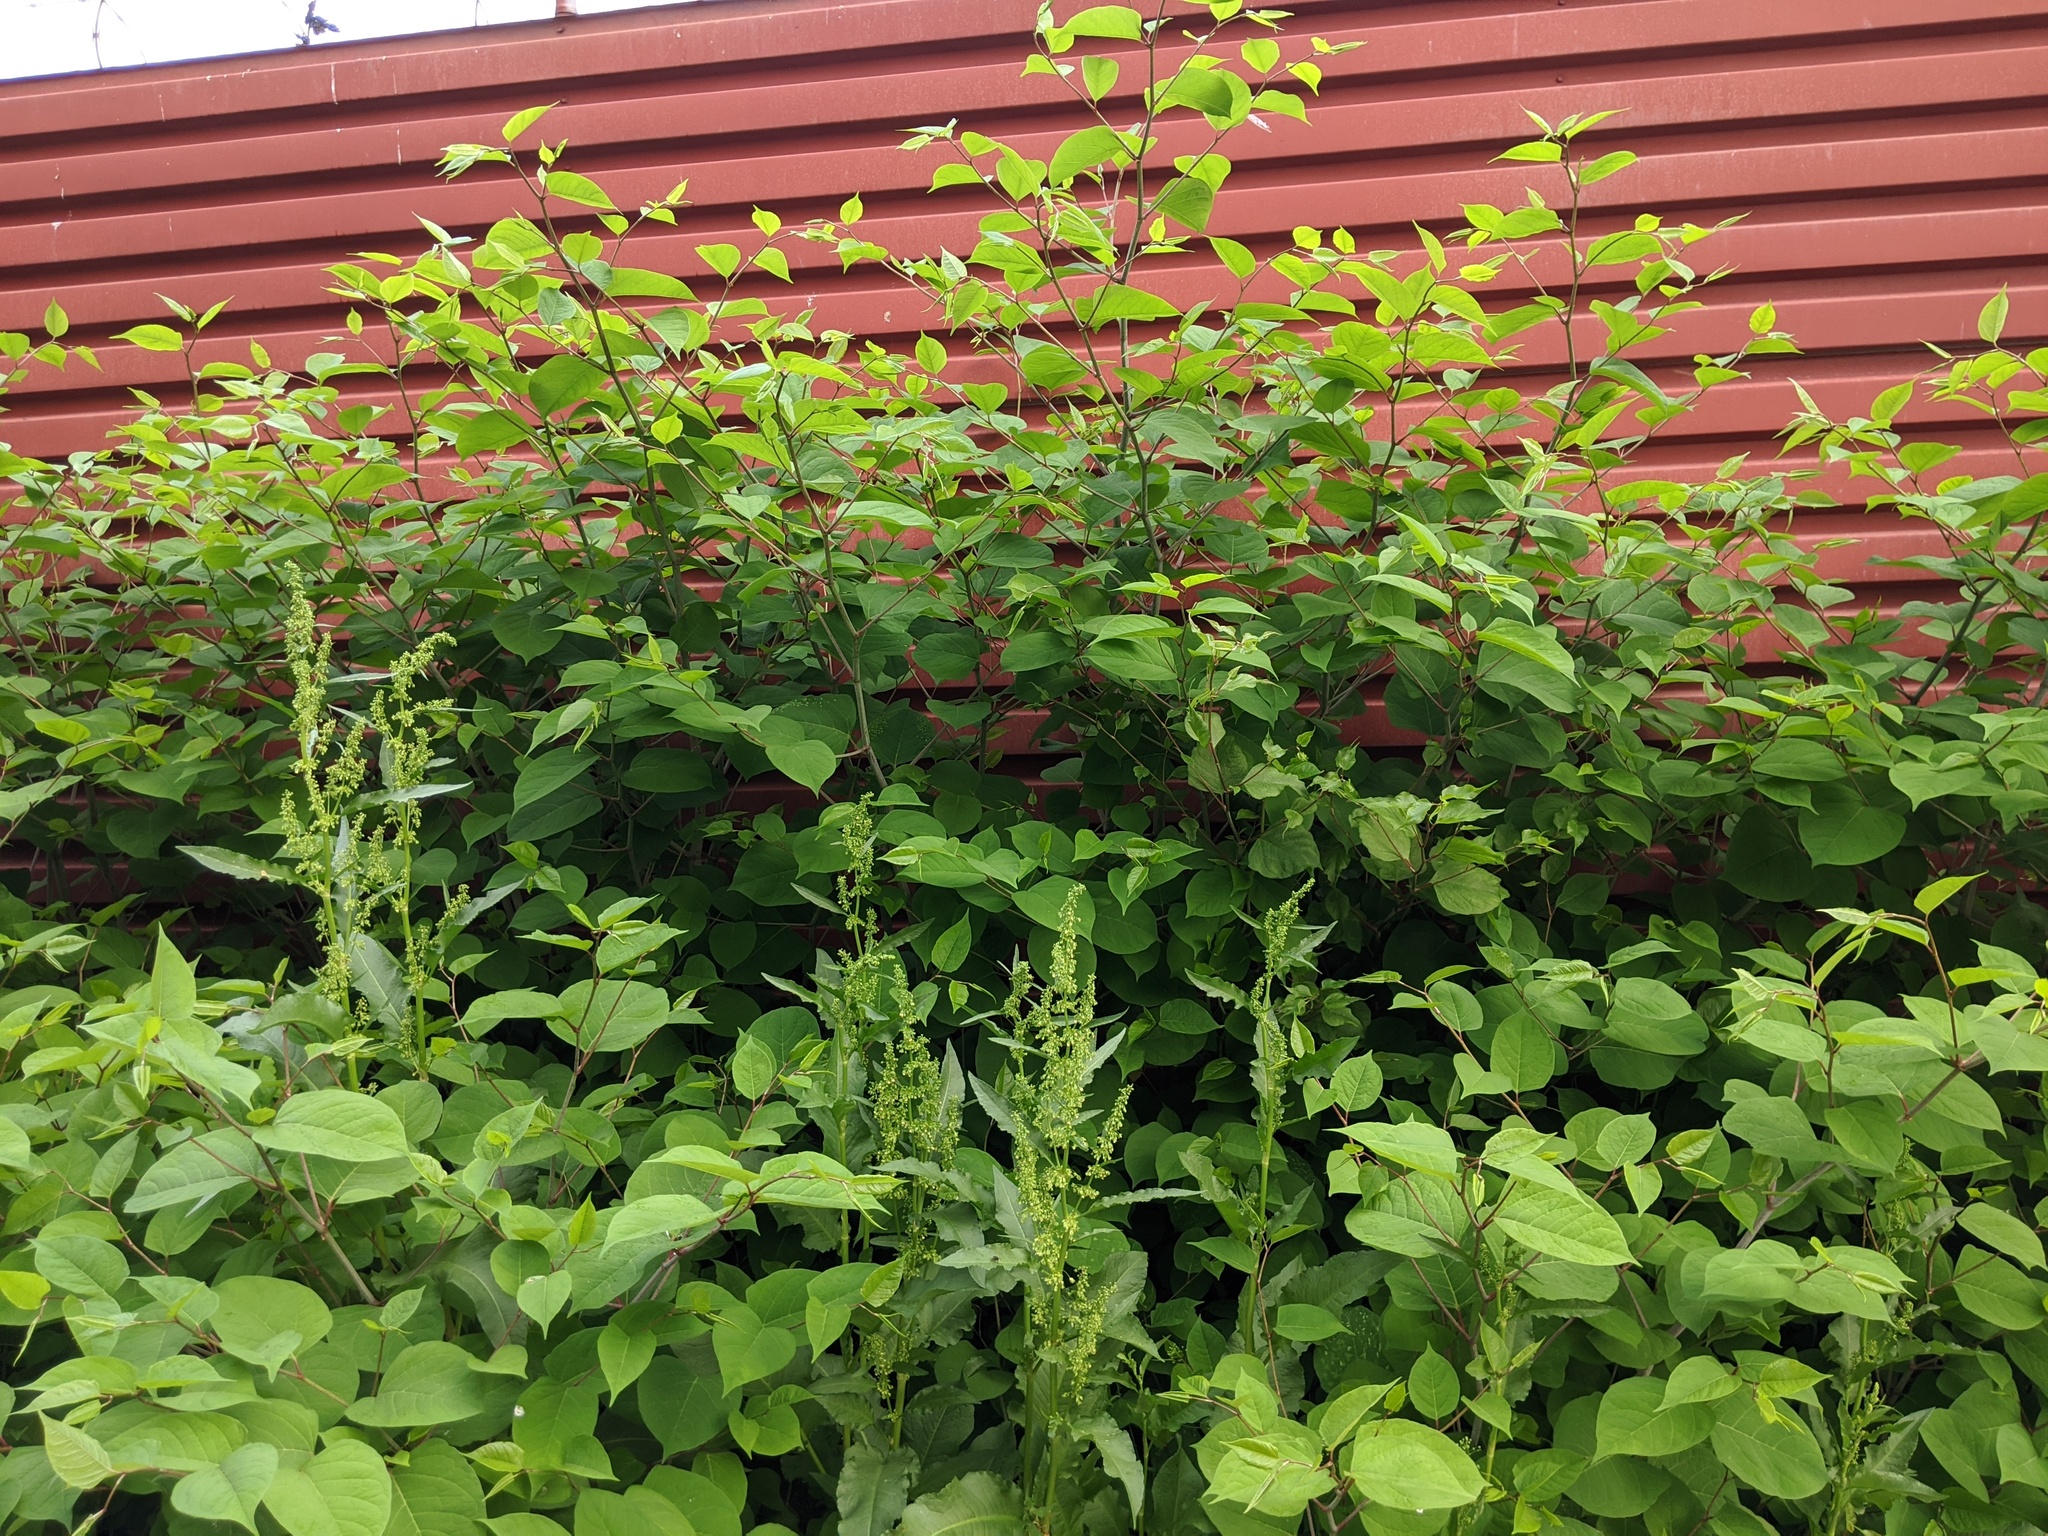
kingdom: Plantae
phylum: Tracheophyta
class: Magnoliopsida
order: Caryophyllales
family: Polygonaceae
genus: Reynoutria
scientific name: Reynoutria japonica
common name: Japanese knotweed
